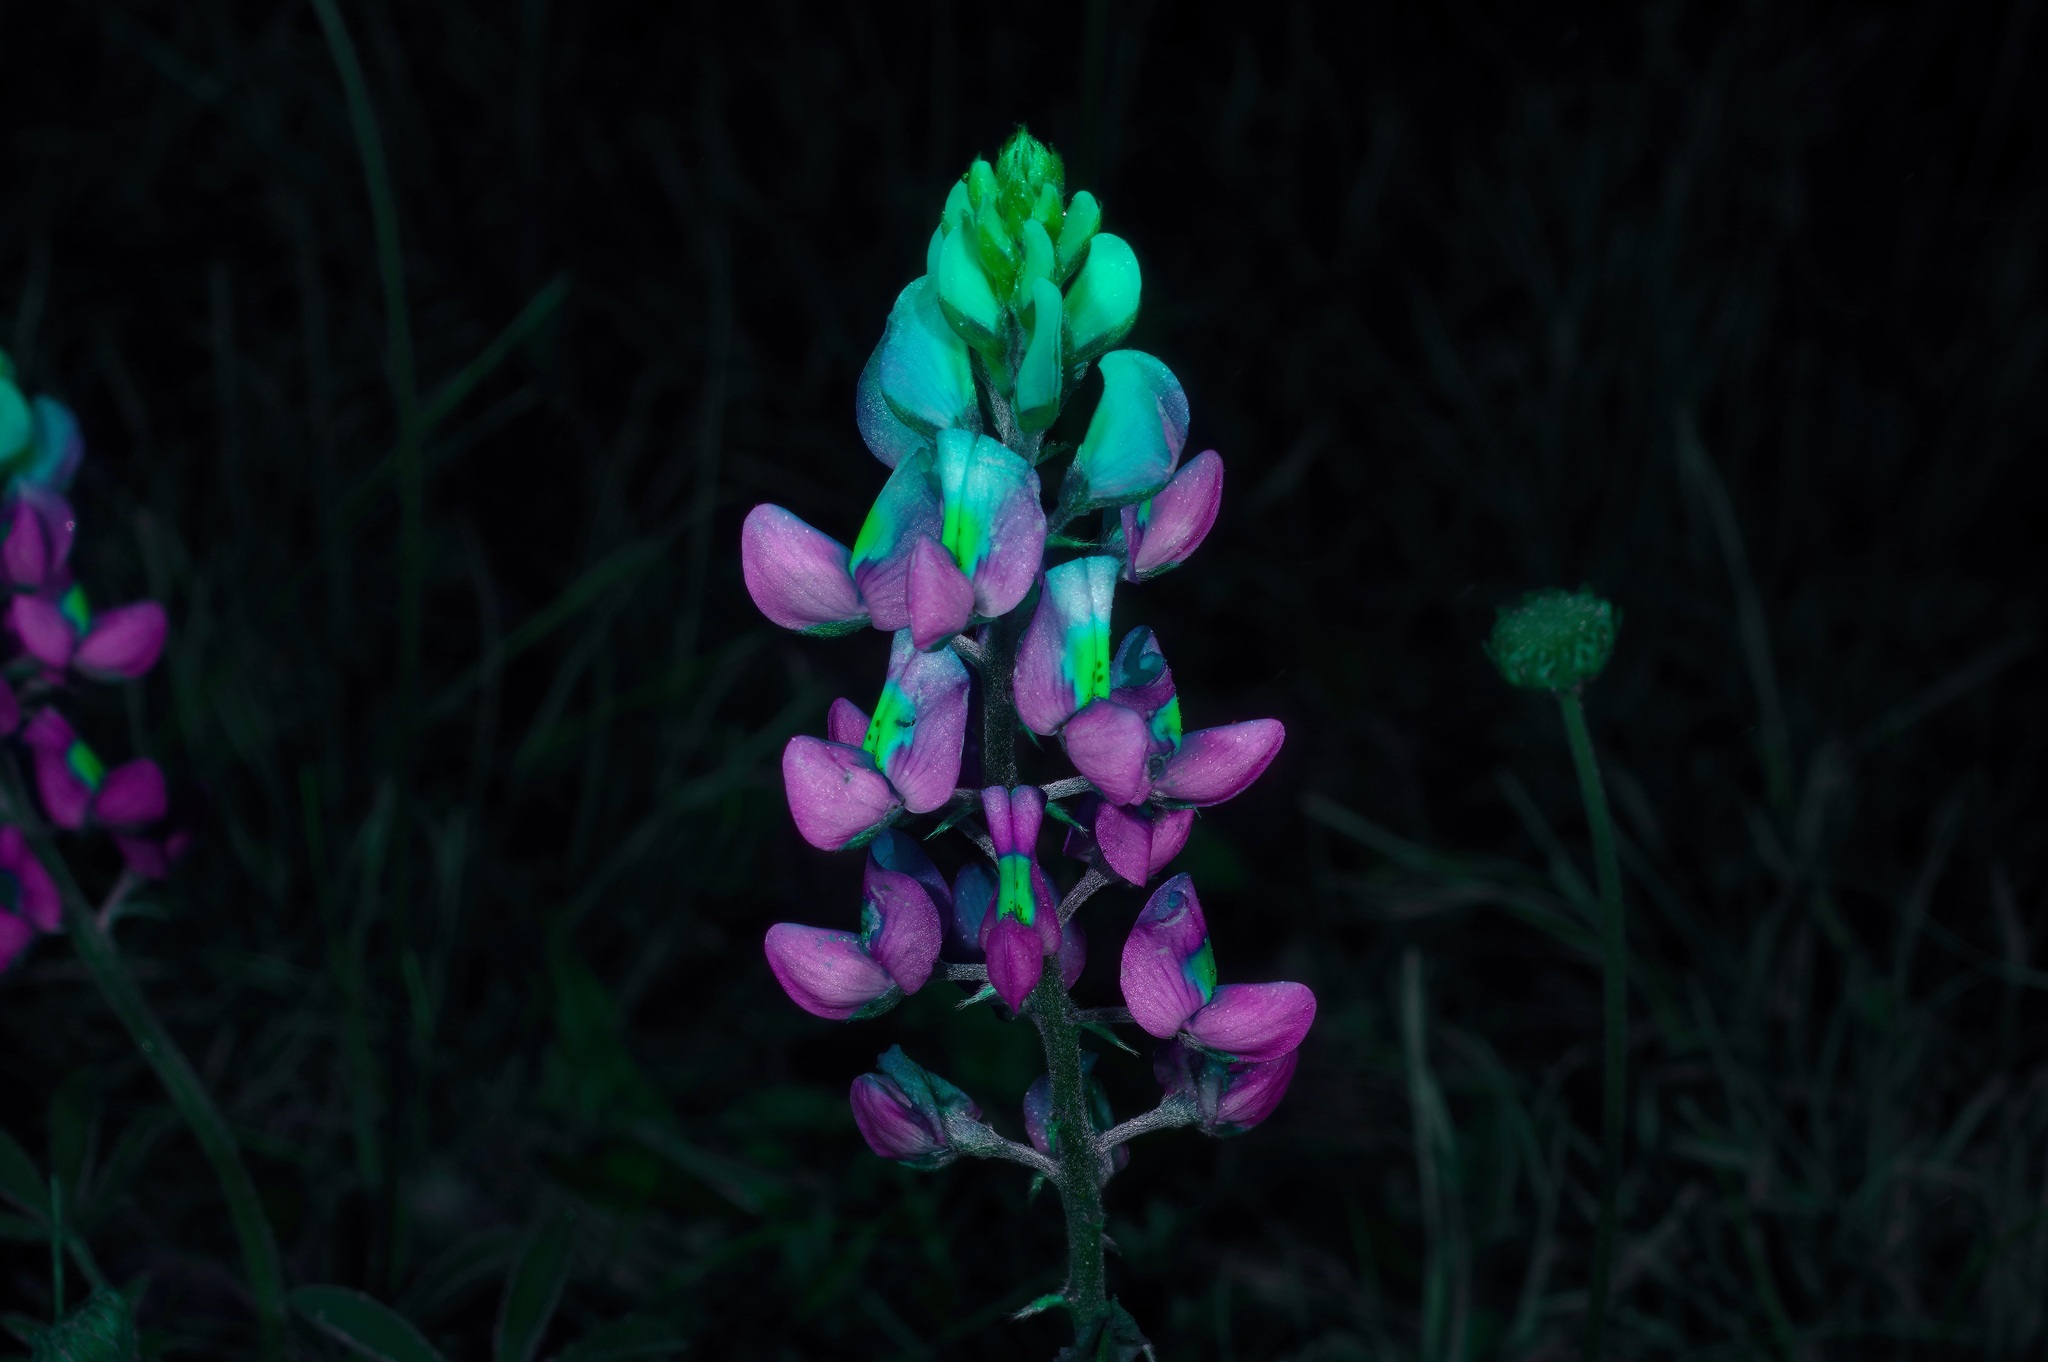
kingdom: Plantae
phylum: Tracheophyta
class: Magnoliopsida
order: Fabales
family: Fabaceae
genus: Lupinus
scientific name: Lupinus texensis
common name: Texas bluebonnet
